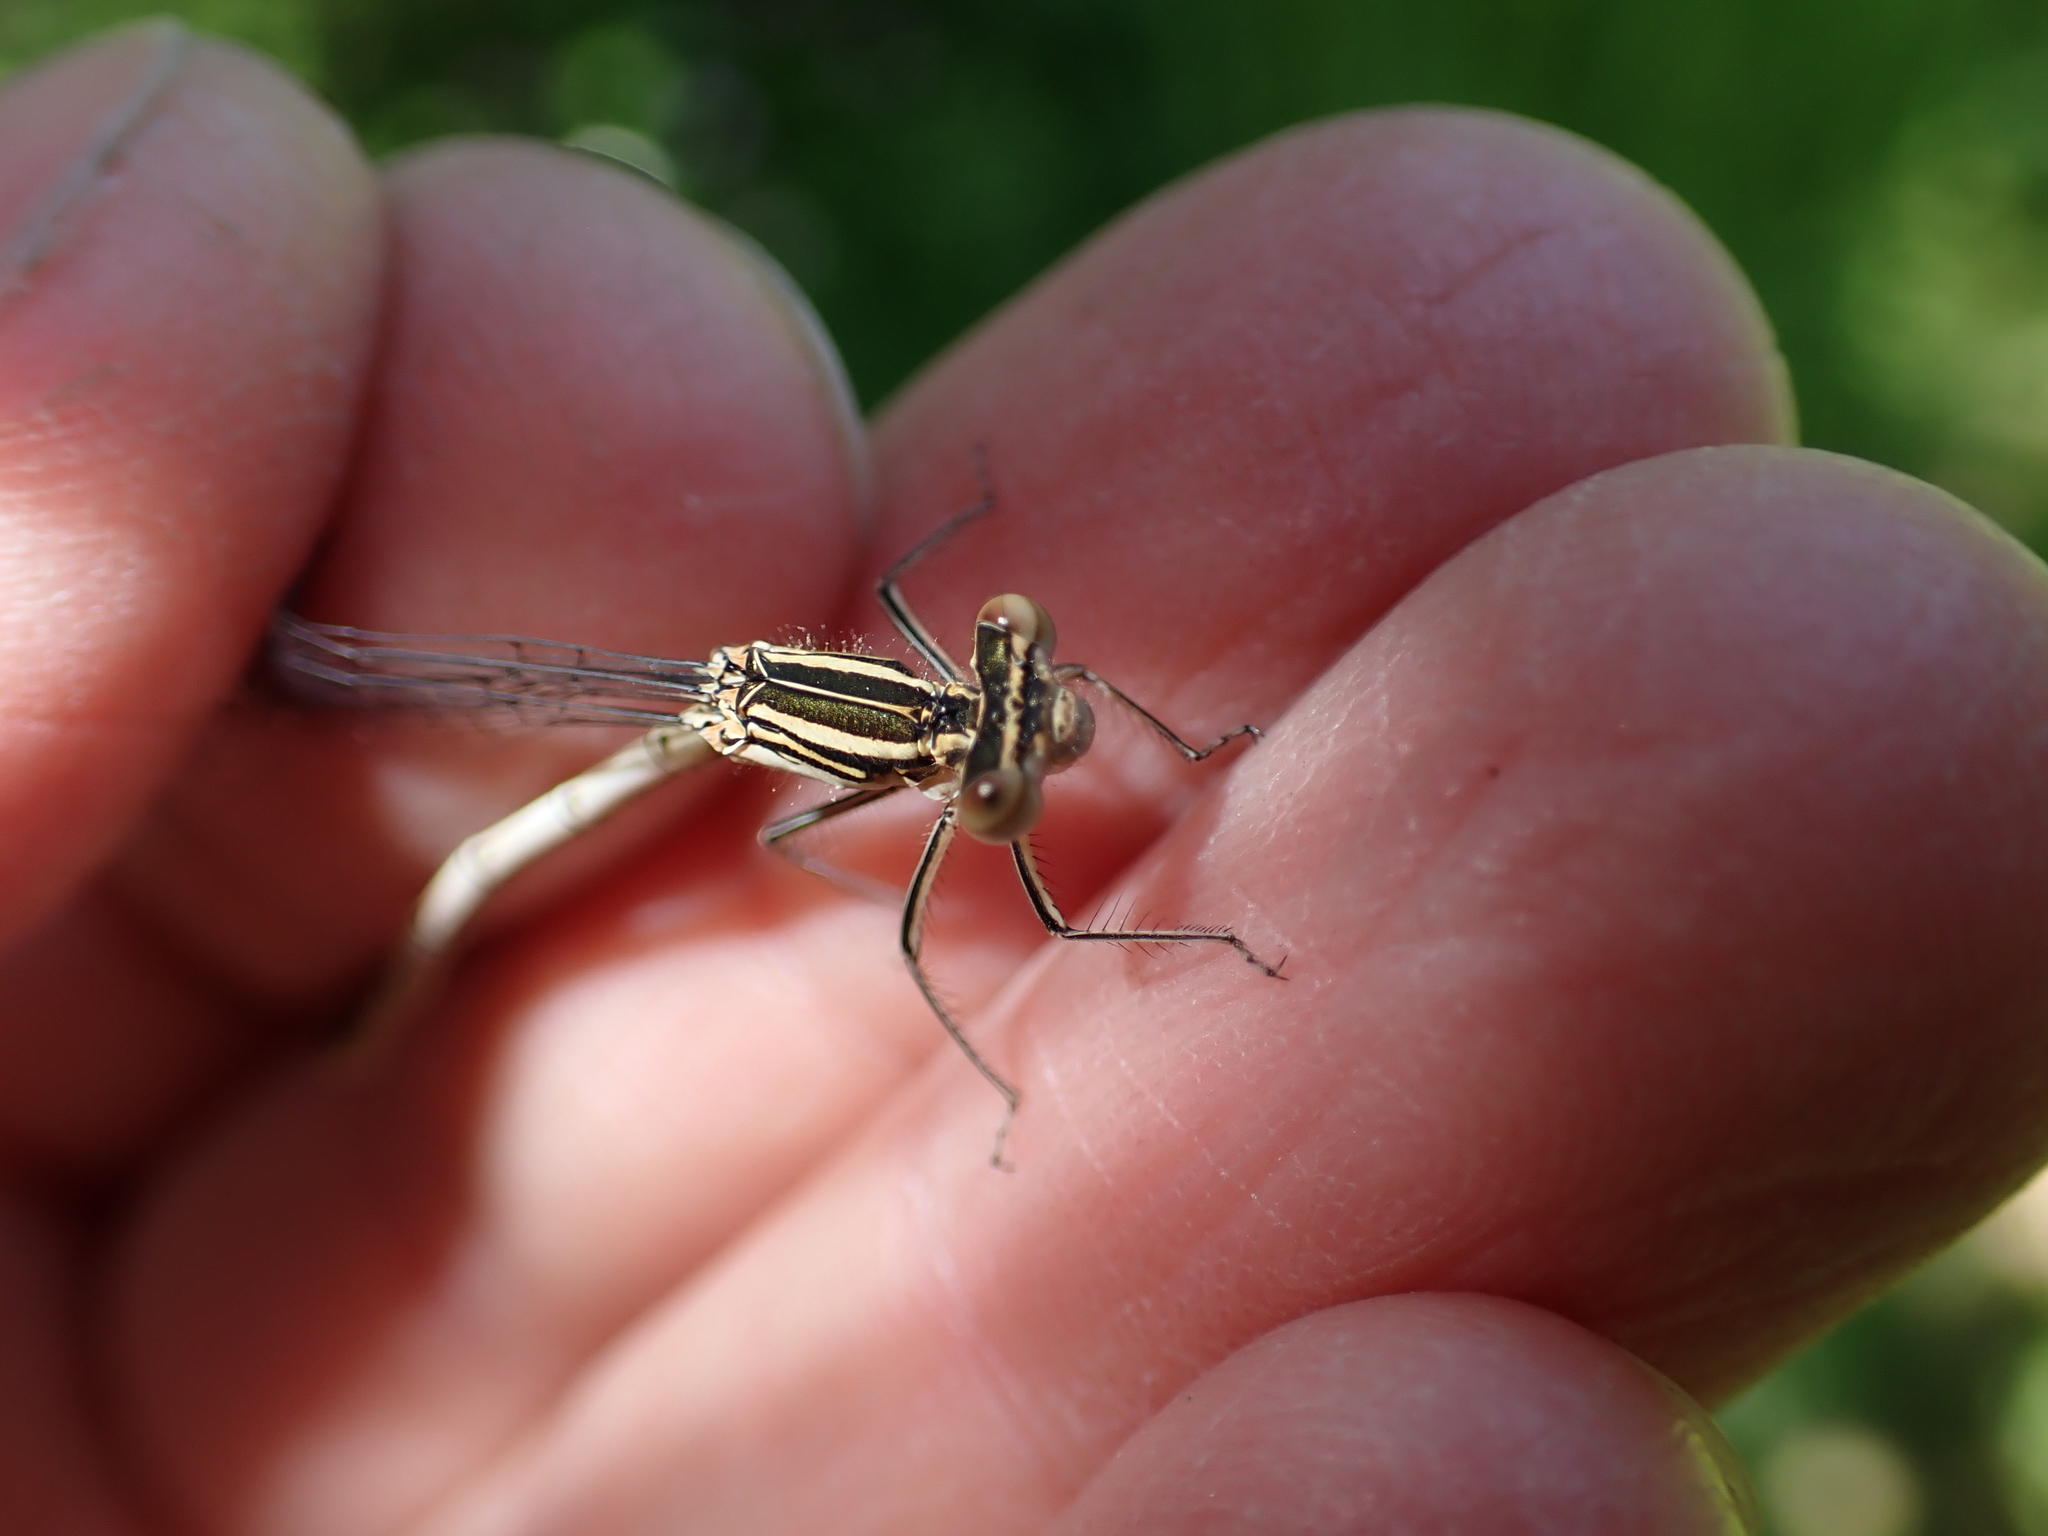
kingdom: Animalia
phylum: Arthropoda
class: Insecta
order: Odonata
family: Platycnemididae
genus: Platycnemis
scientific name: Platycnemis pennipes
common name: White-legged damselfly
